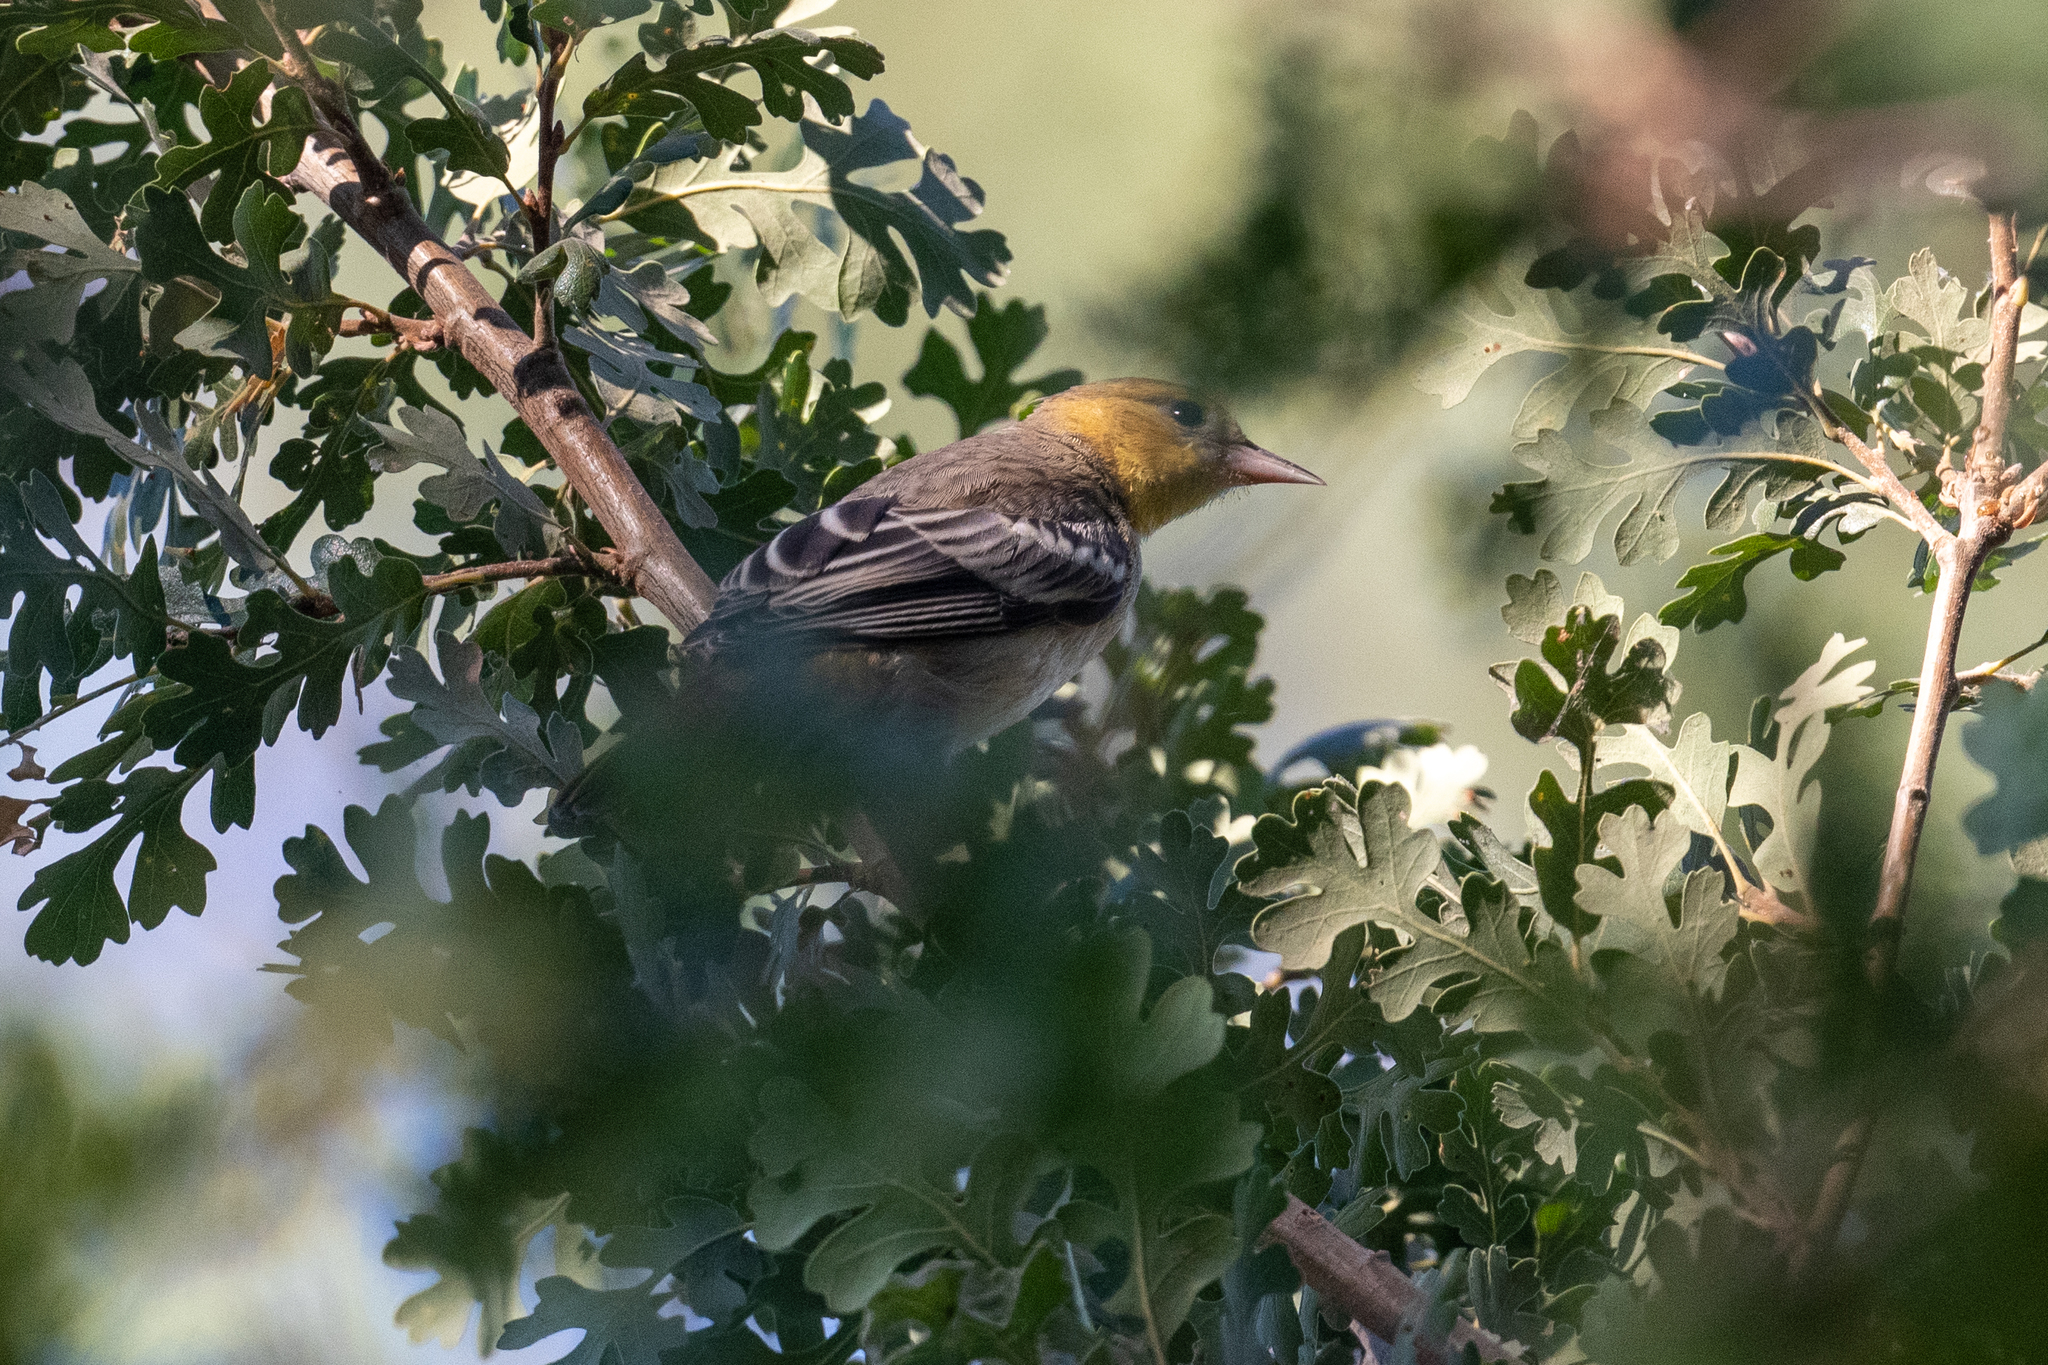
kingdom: Animalia
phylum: Chordata
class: Aves
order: Passeriformes
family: Icteridae
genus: Icterus
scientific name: Icterus bullockii
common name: Bullock's oriole
